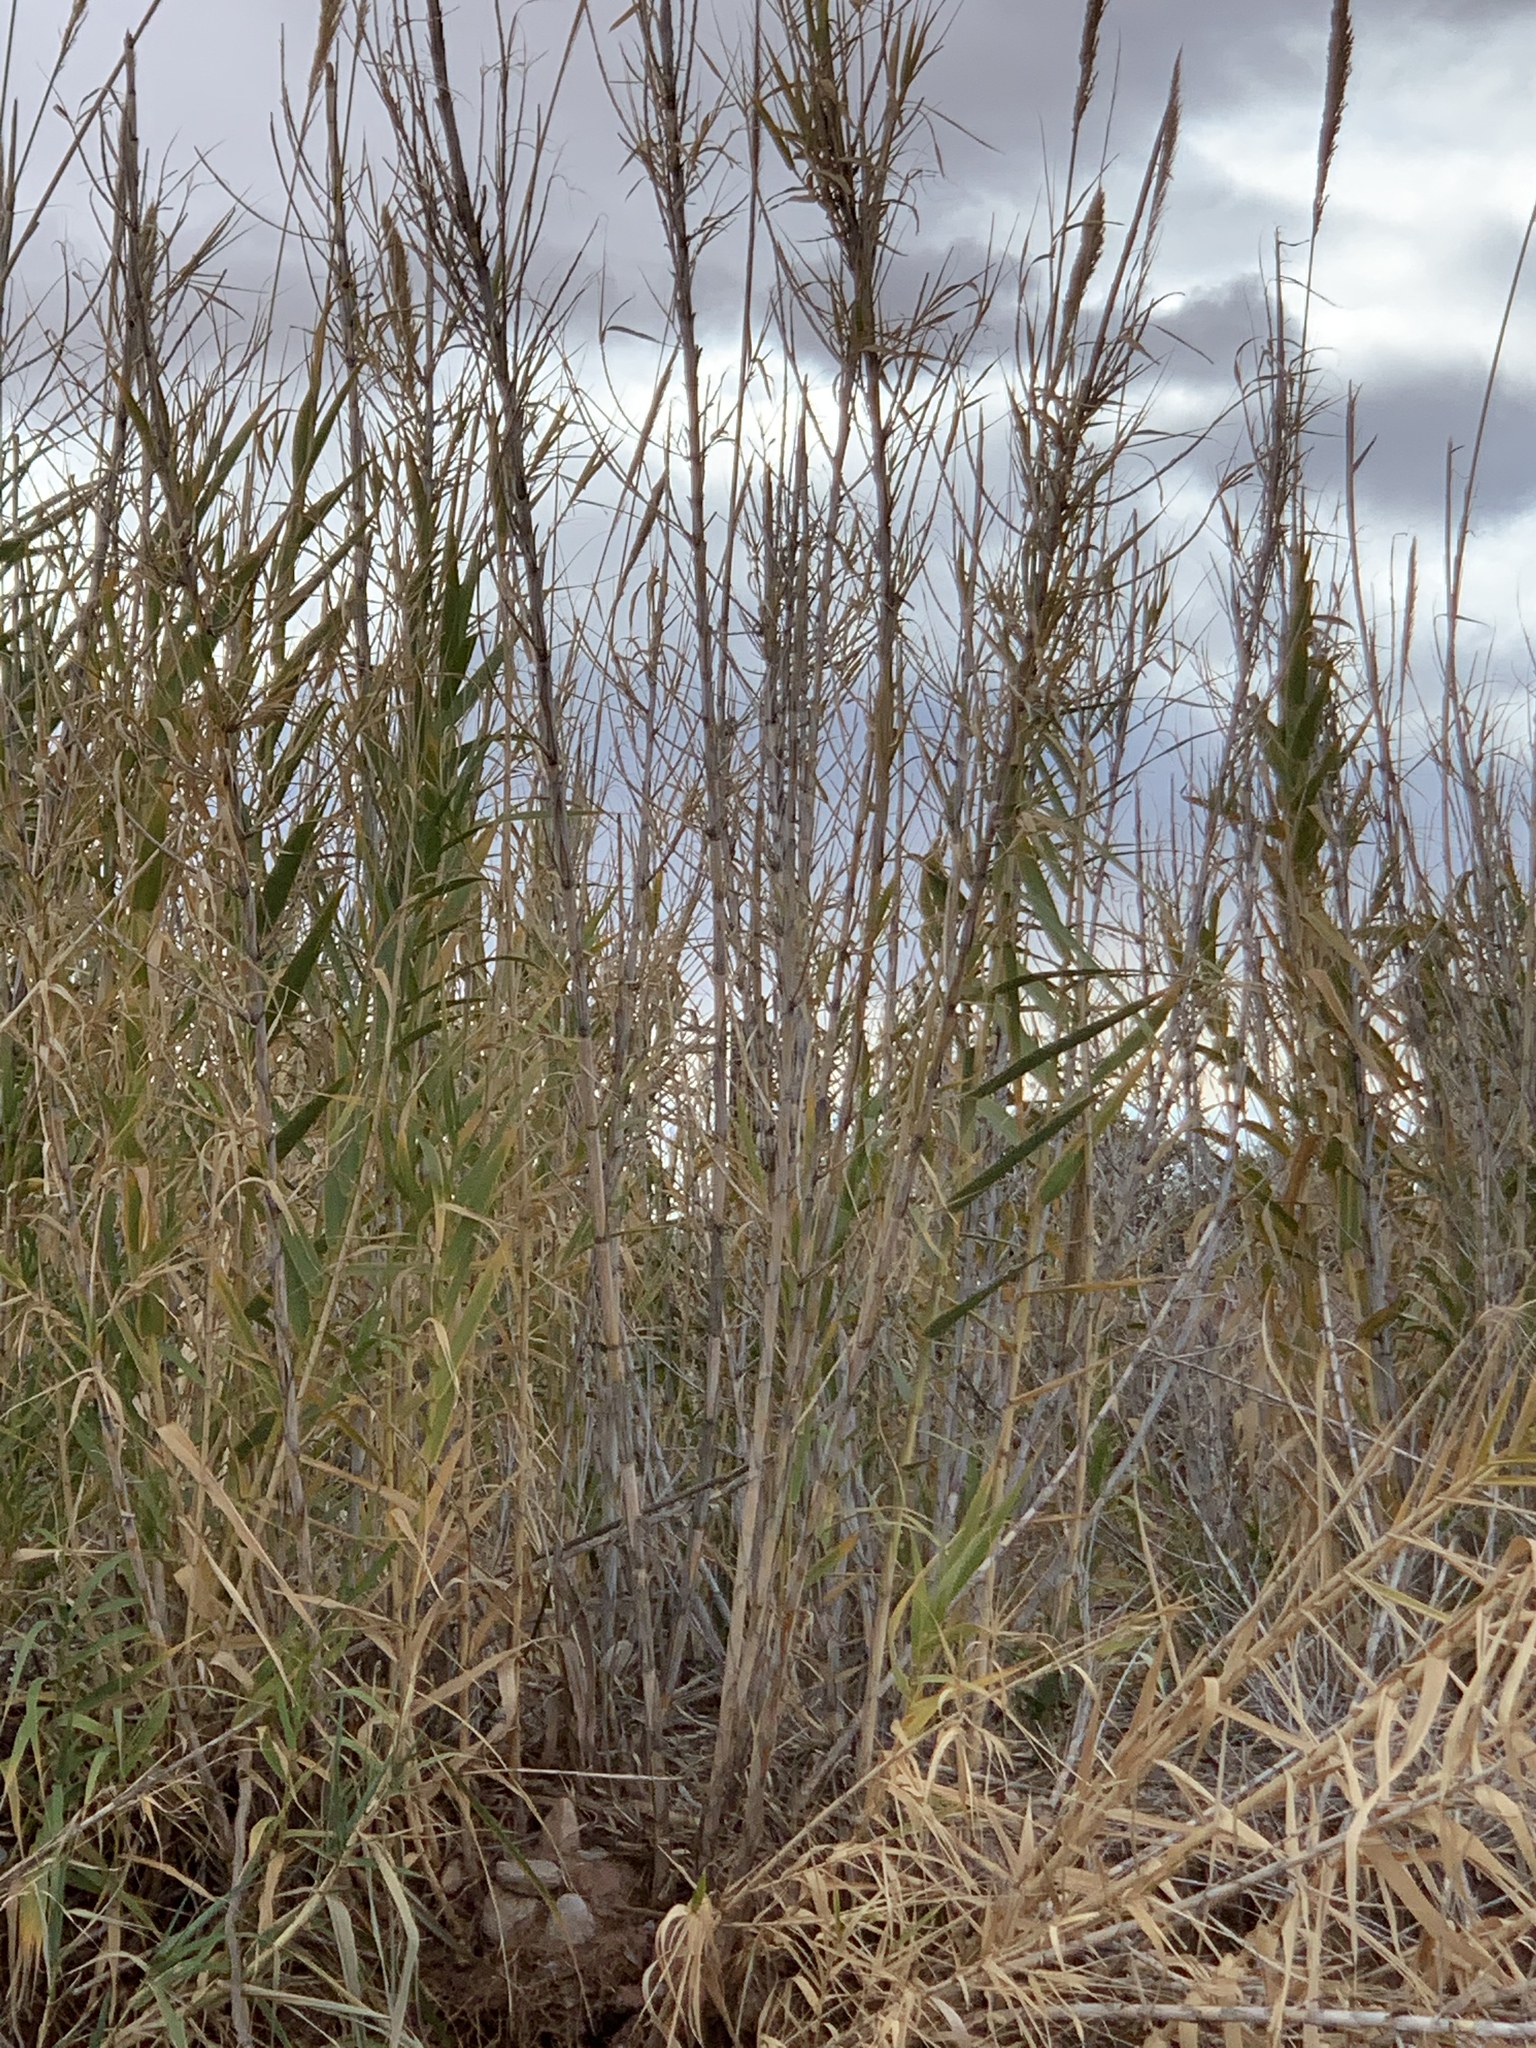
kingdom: Plantae
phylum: Tracheophyta
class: Liliopsida
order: Poales
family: Poaceae
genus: Arundo
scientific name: Arundo donax
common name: Giant reed
